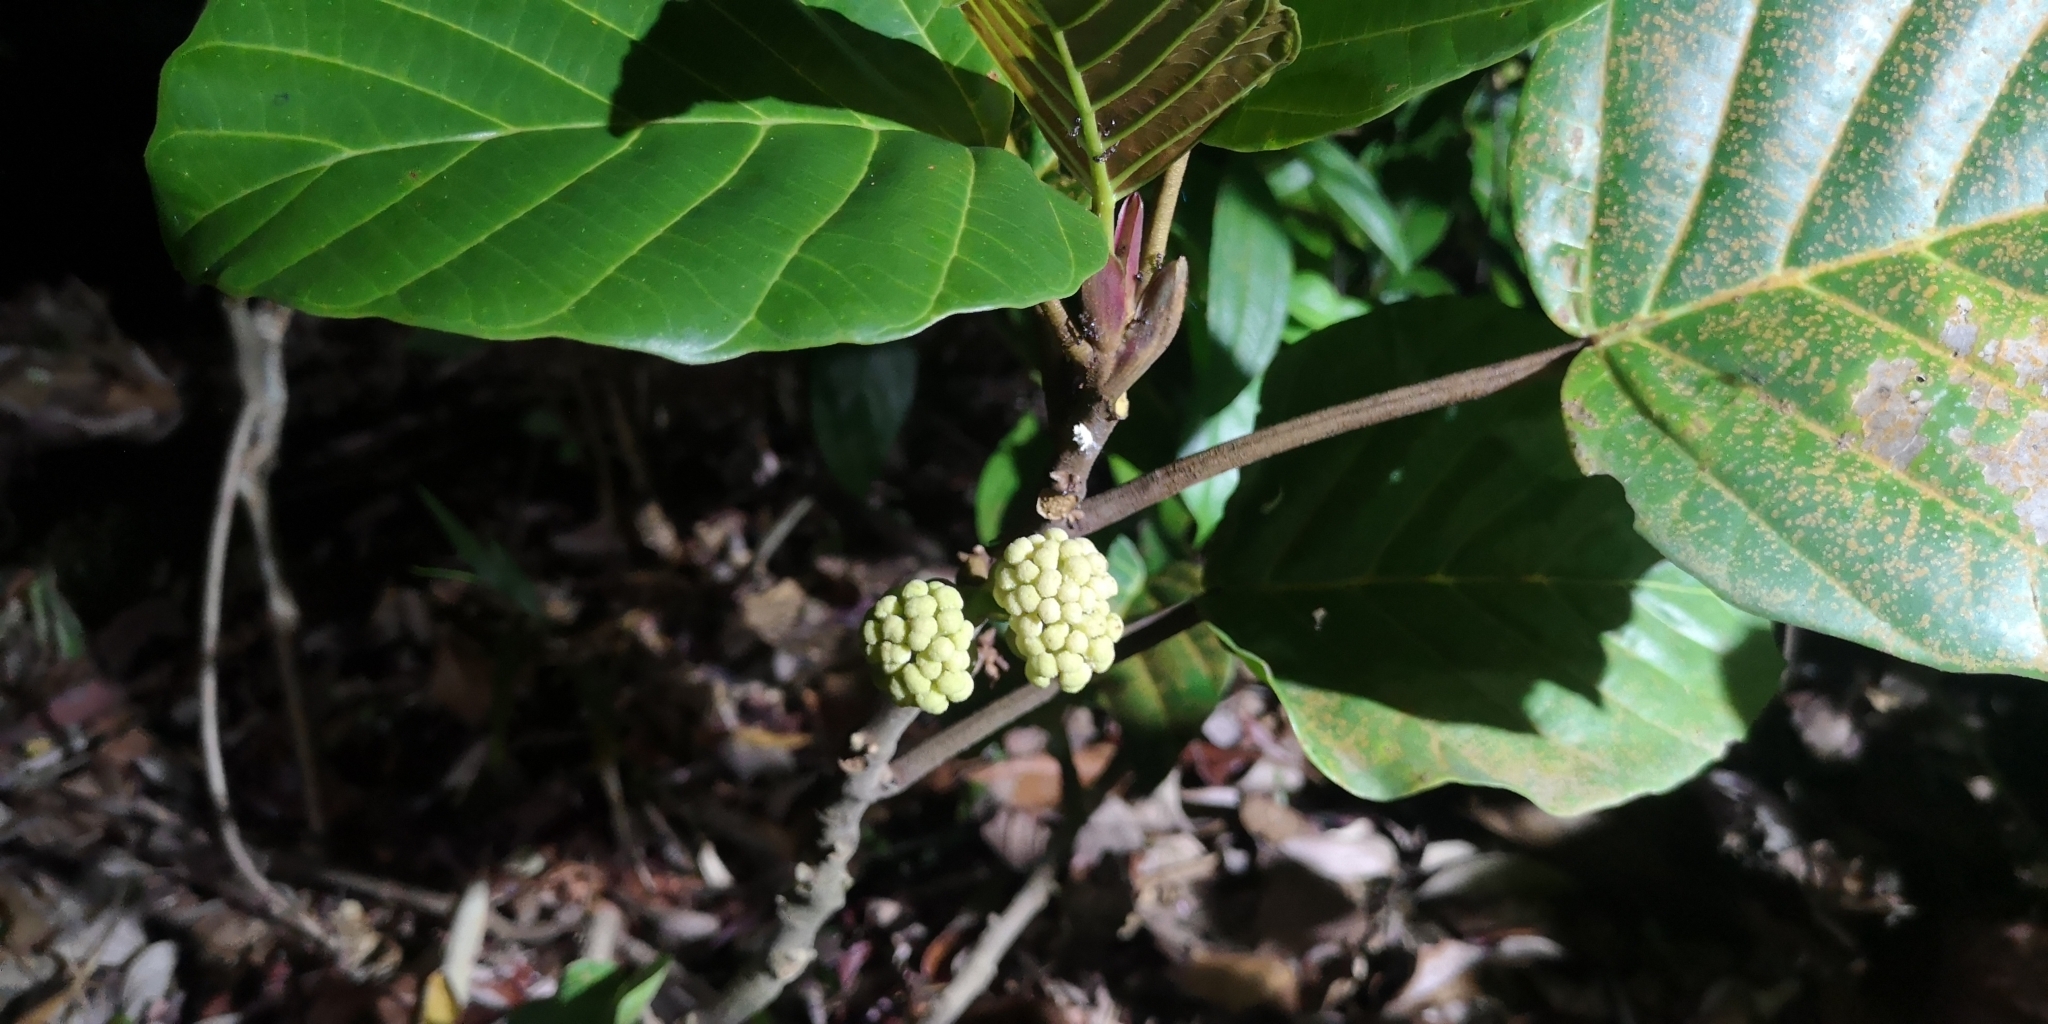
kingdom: Plantae
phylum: Tracheophyta
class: Magnoliopsida
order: Rosales
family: Urticaceae
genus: Poikilospermum
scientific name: Poikilospermum suaveolens
